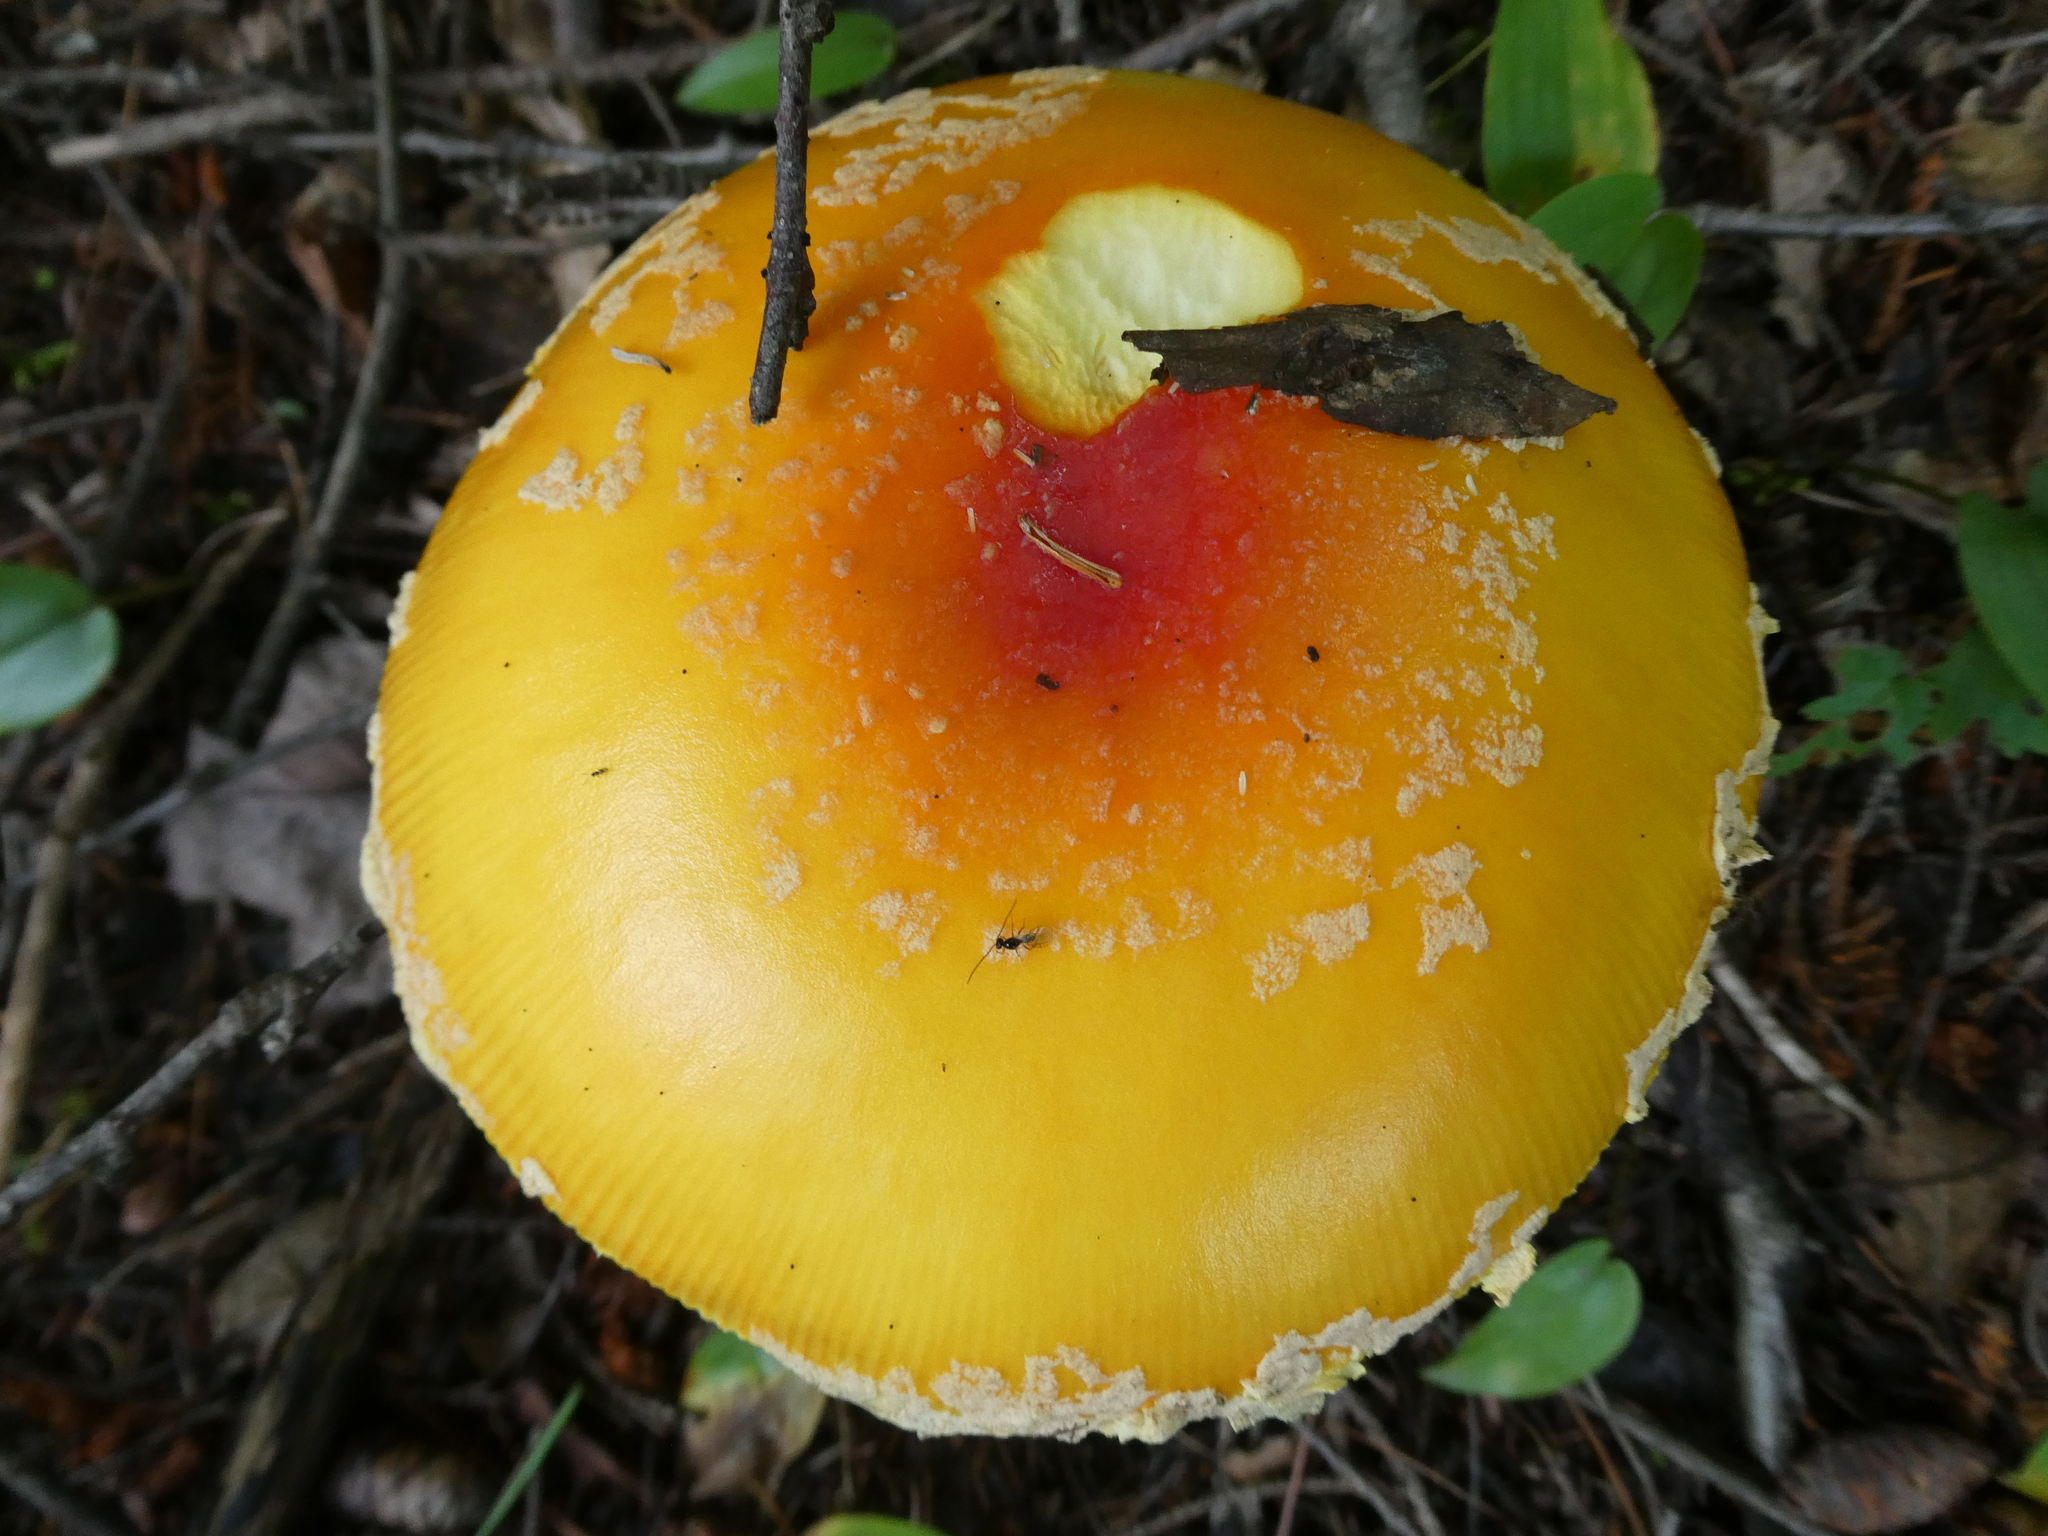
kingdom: Fungi
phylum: Basidiomycota
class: Agaricomycetes
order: Agaricales
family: Amanitaceae
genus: Amanita
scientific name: Amanita muscaria
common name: Fly agaric
